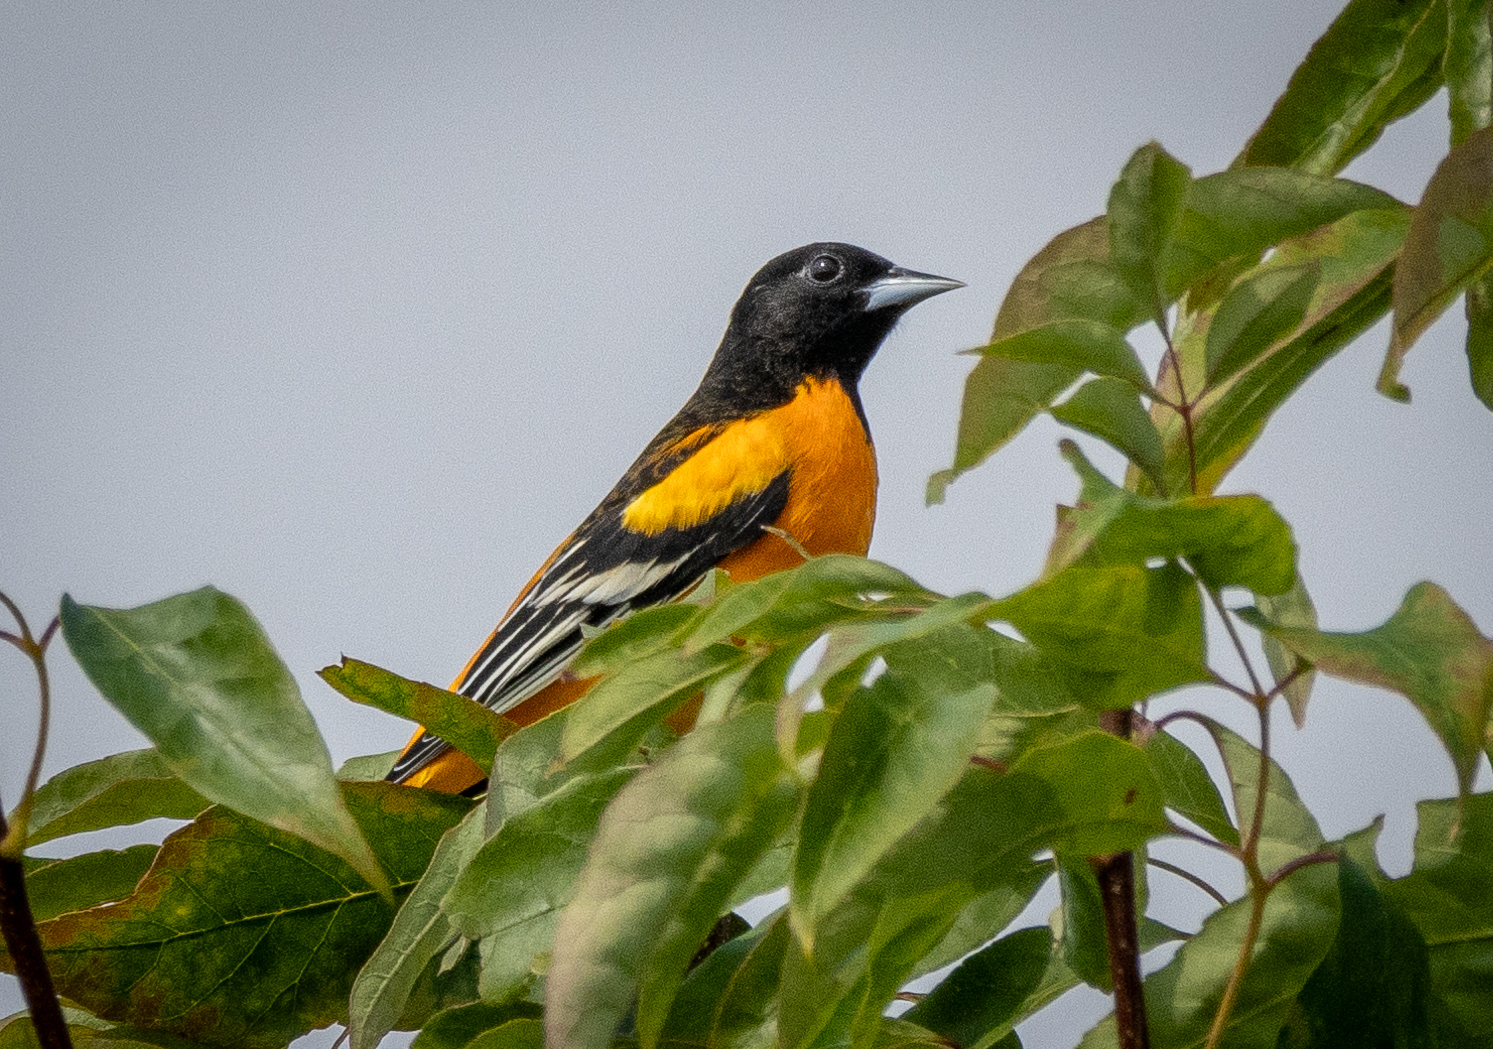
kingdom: Animalia
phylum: Chordata
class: Aves
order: Passeriformes
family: Icteridae
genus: Icterus
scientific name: Icterus galbula
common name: Baltimore oriole
